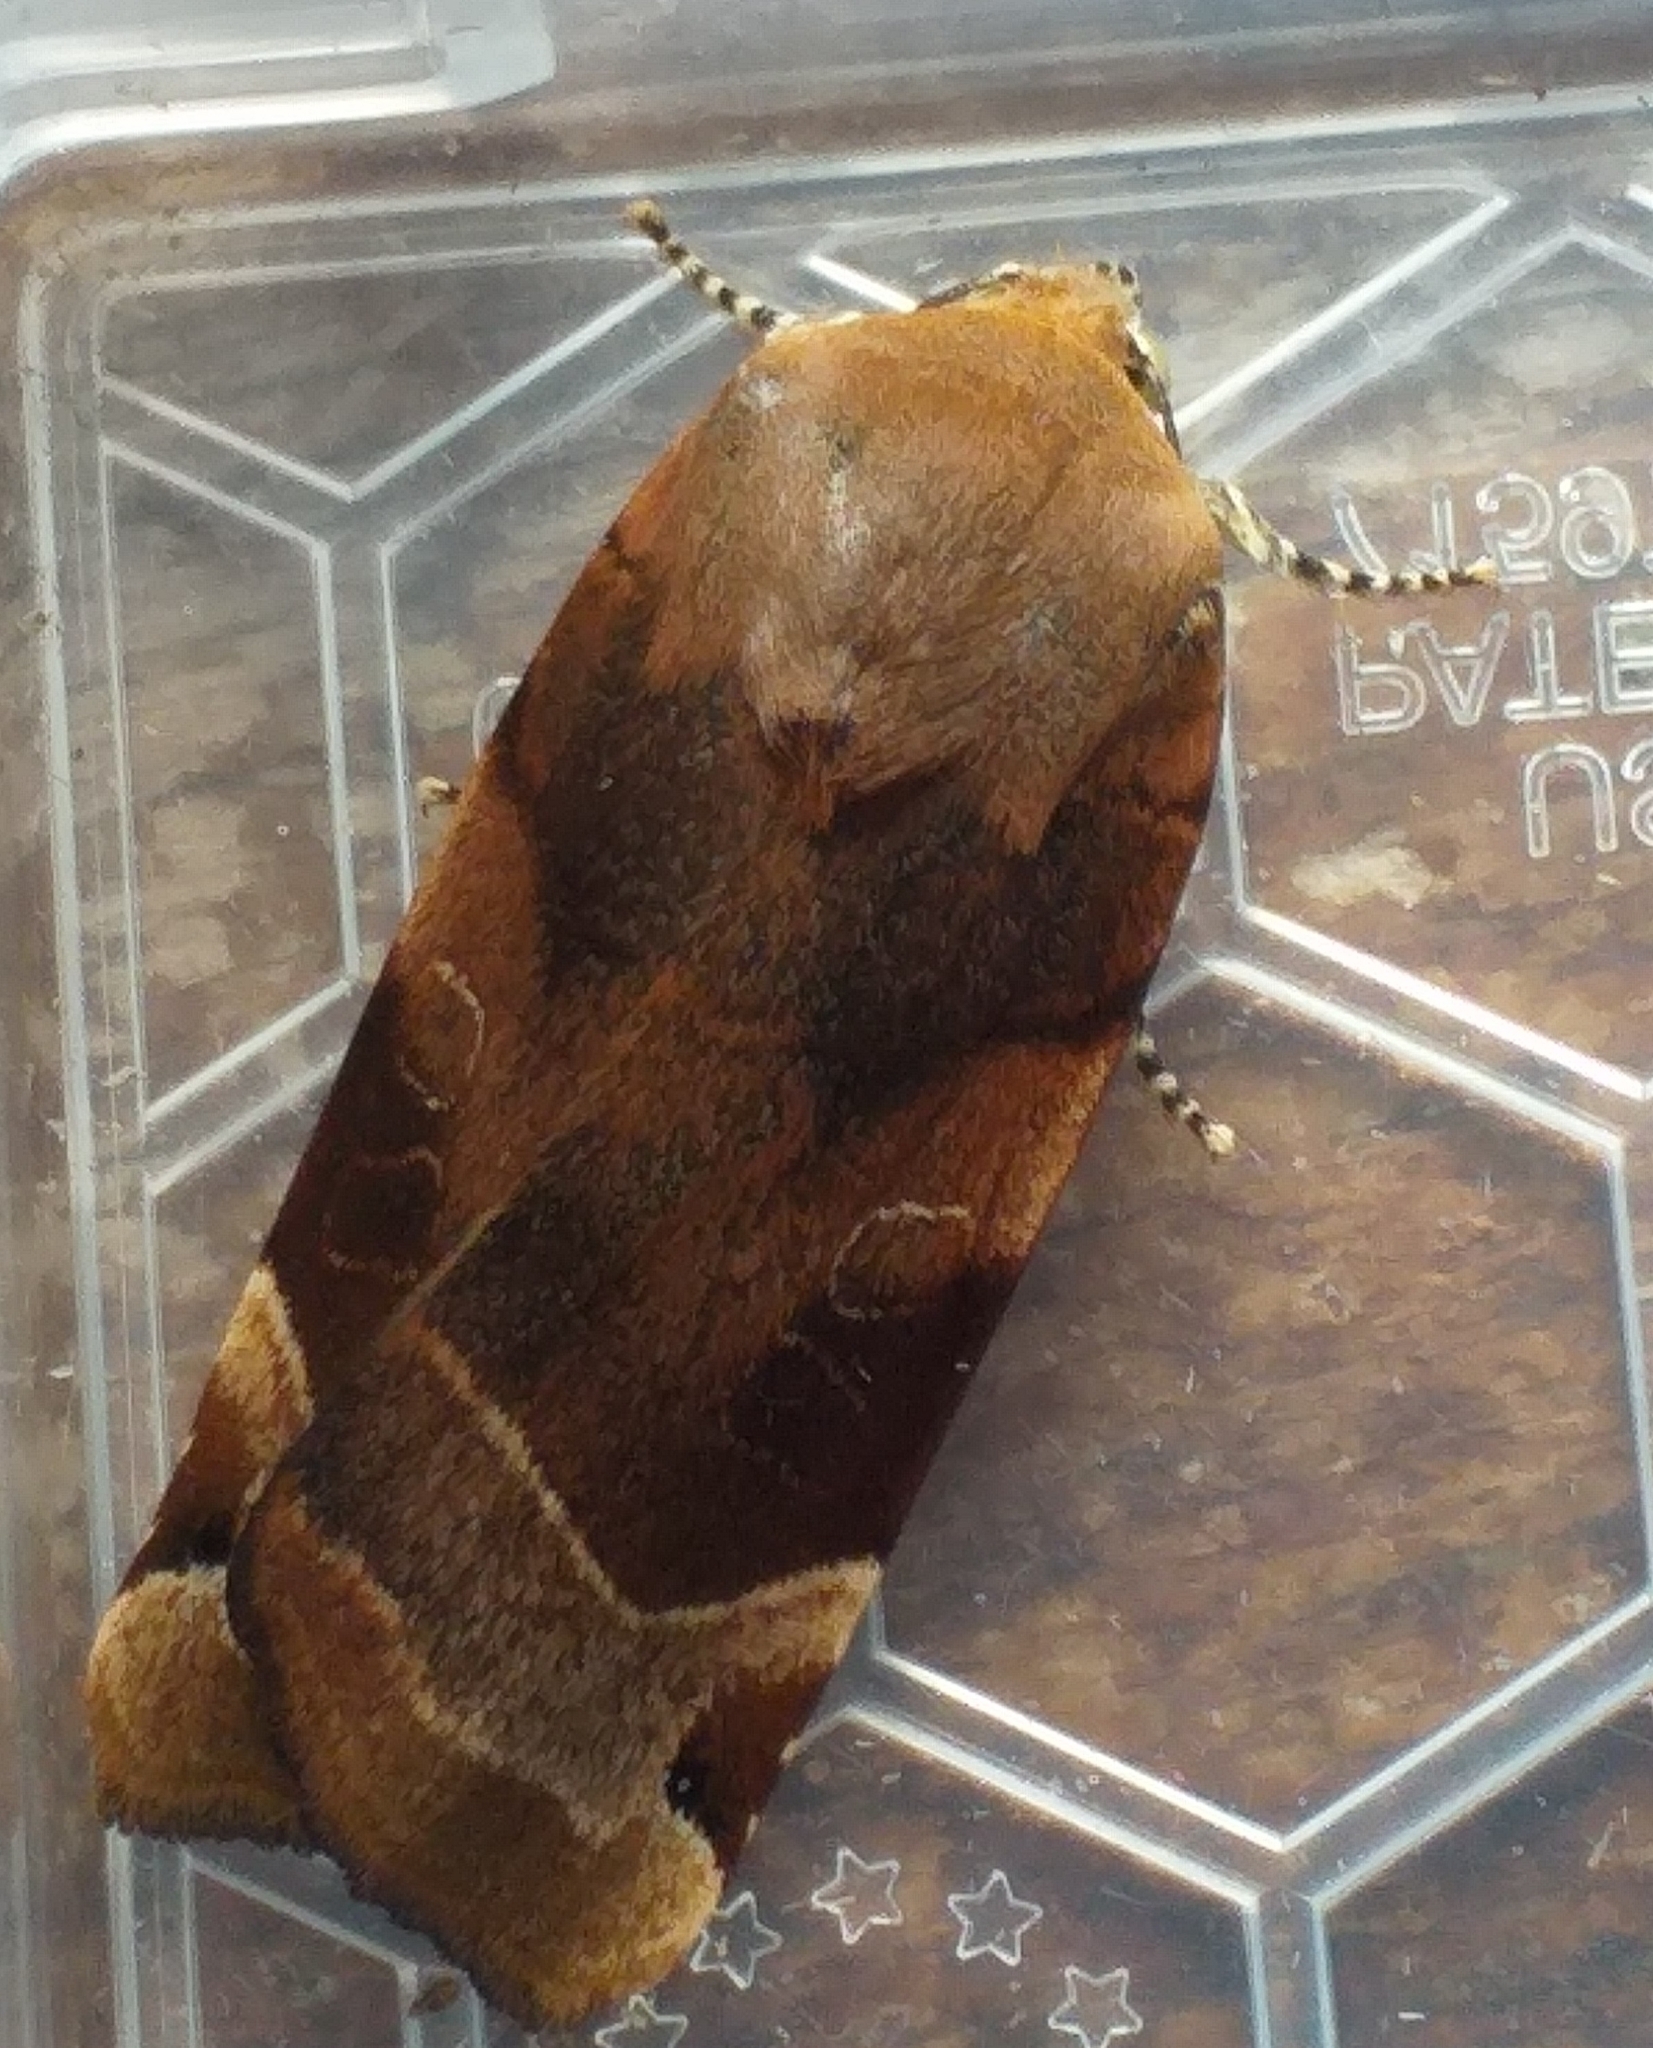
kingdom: Animalia
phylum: Arthropoda
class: Insecta
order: Lepidoptera
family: Noctuidae
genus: Noctua
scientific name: Noctua fimbriata
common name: Broad-bordered yellow underwing
